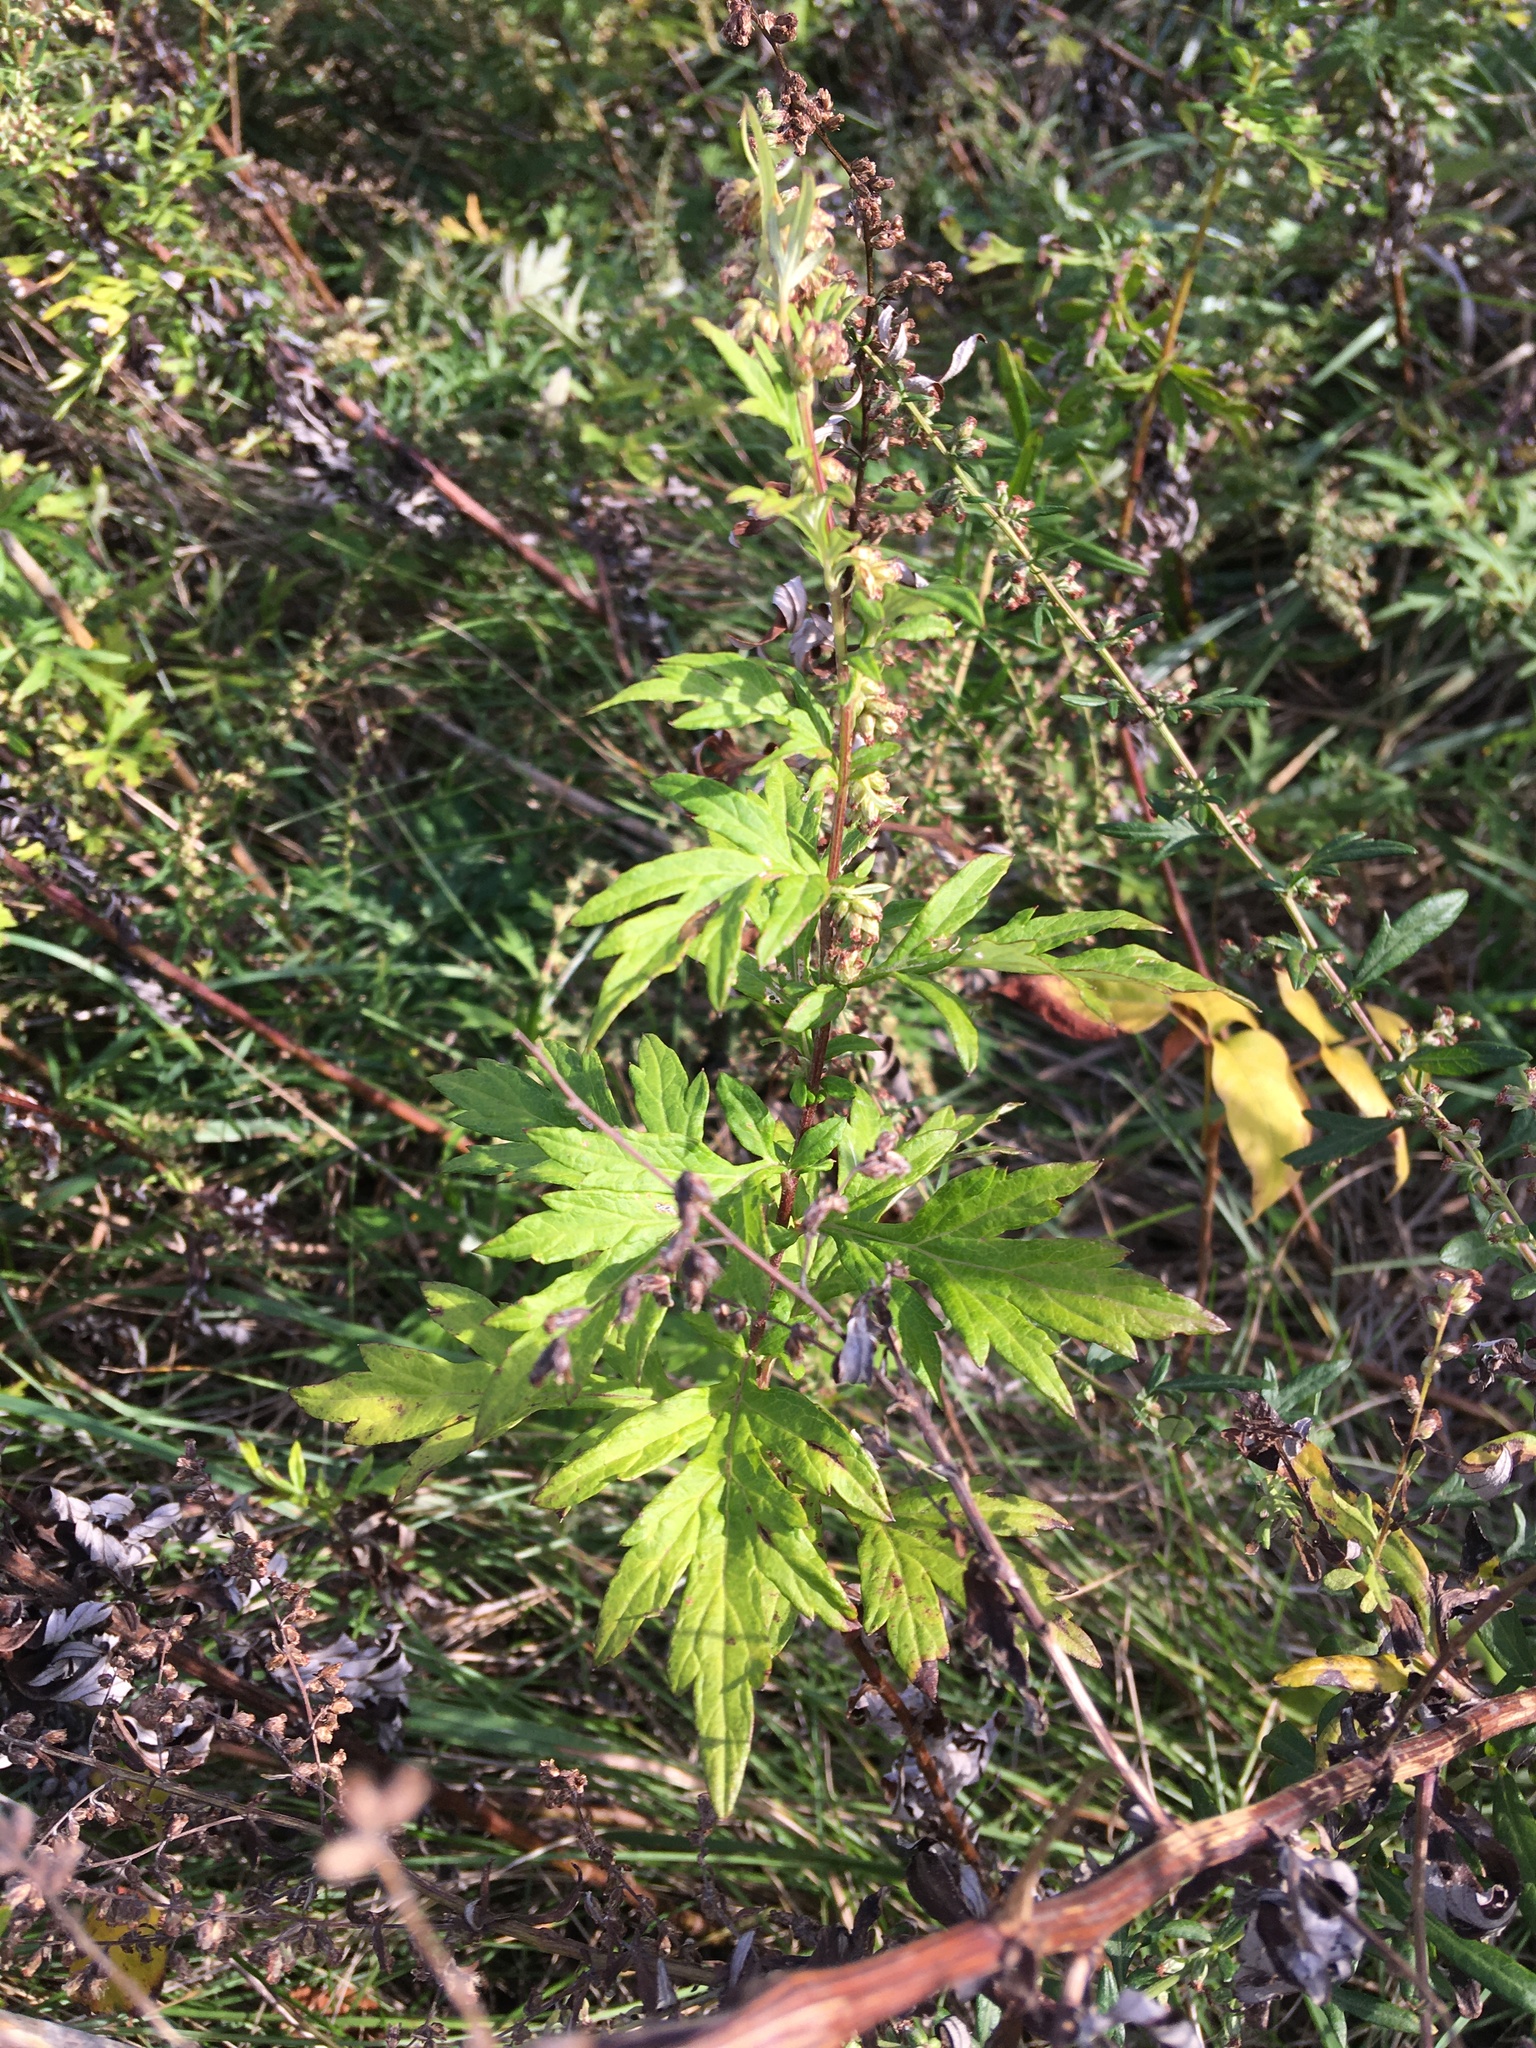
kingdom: Plantae
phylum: Tracheophyta
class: Magnoliopsida
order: Asterales
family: Asteraceae
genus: Artemisia
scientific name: Artemisia vulgaris
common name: Mugwort
